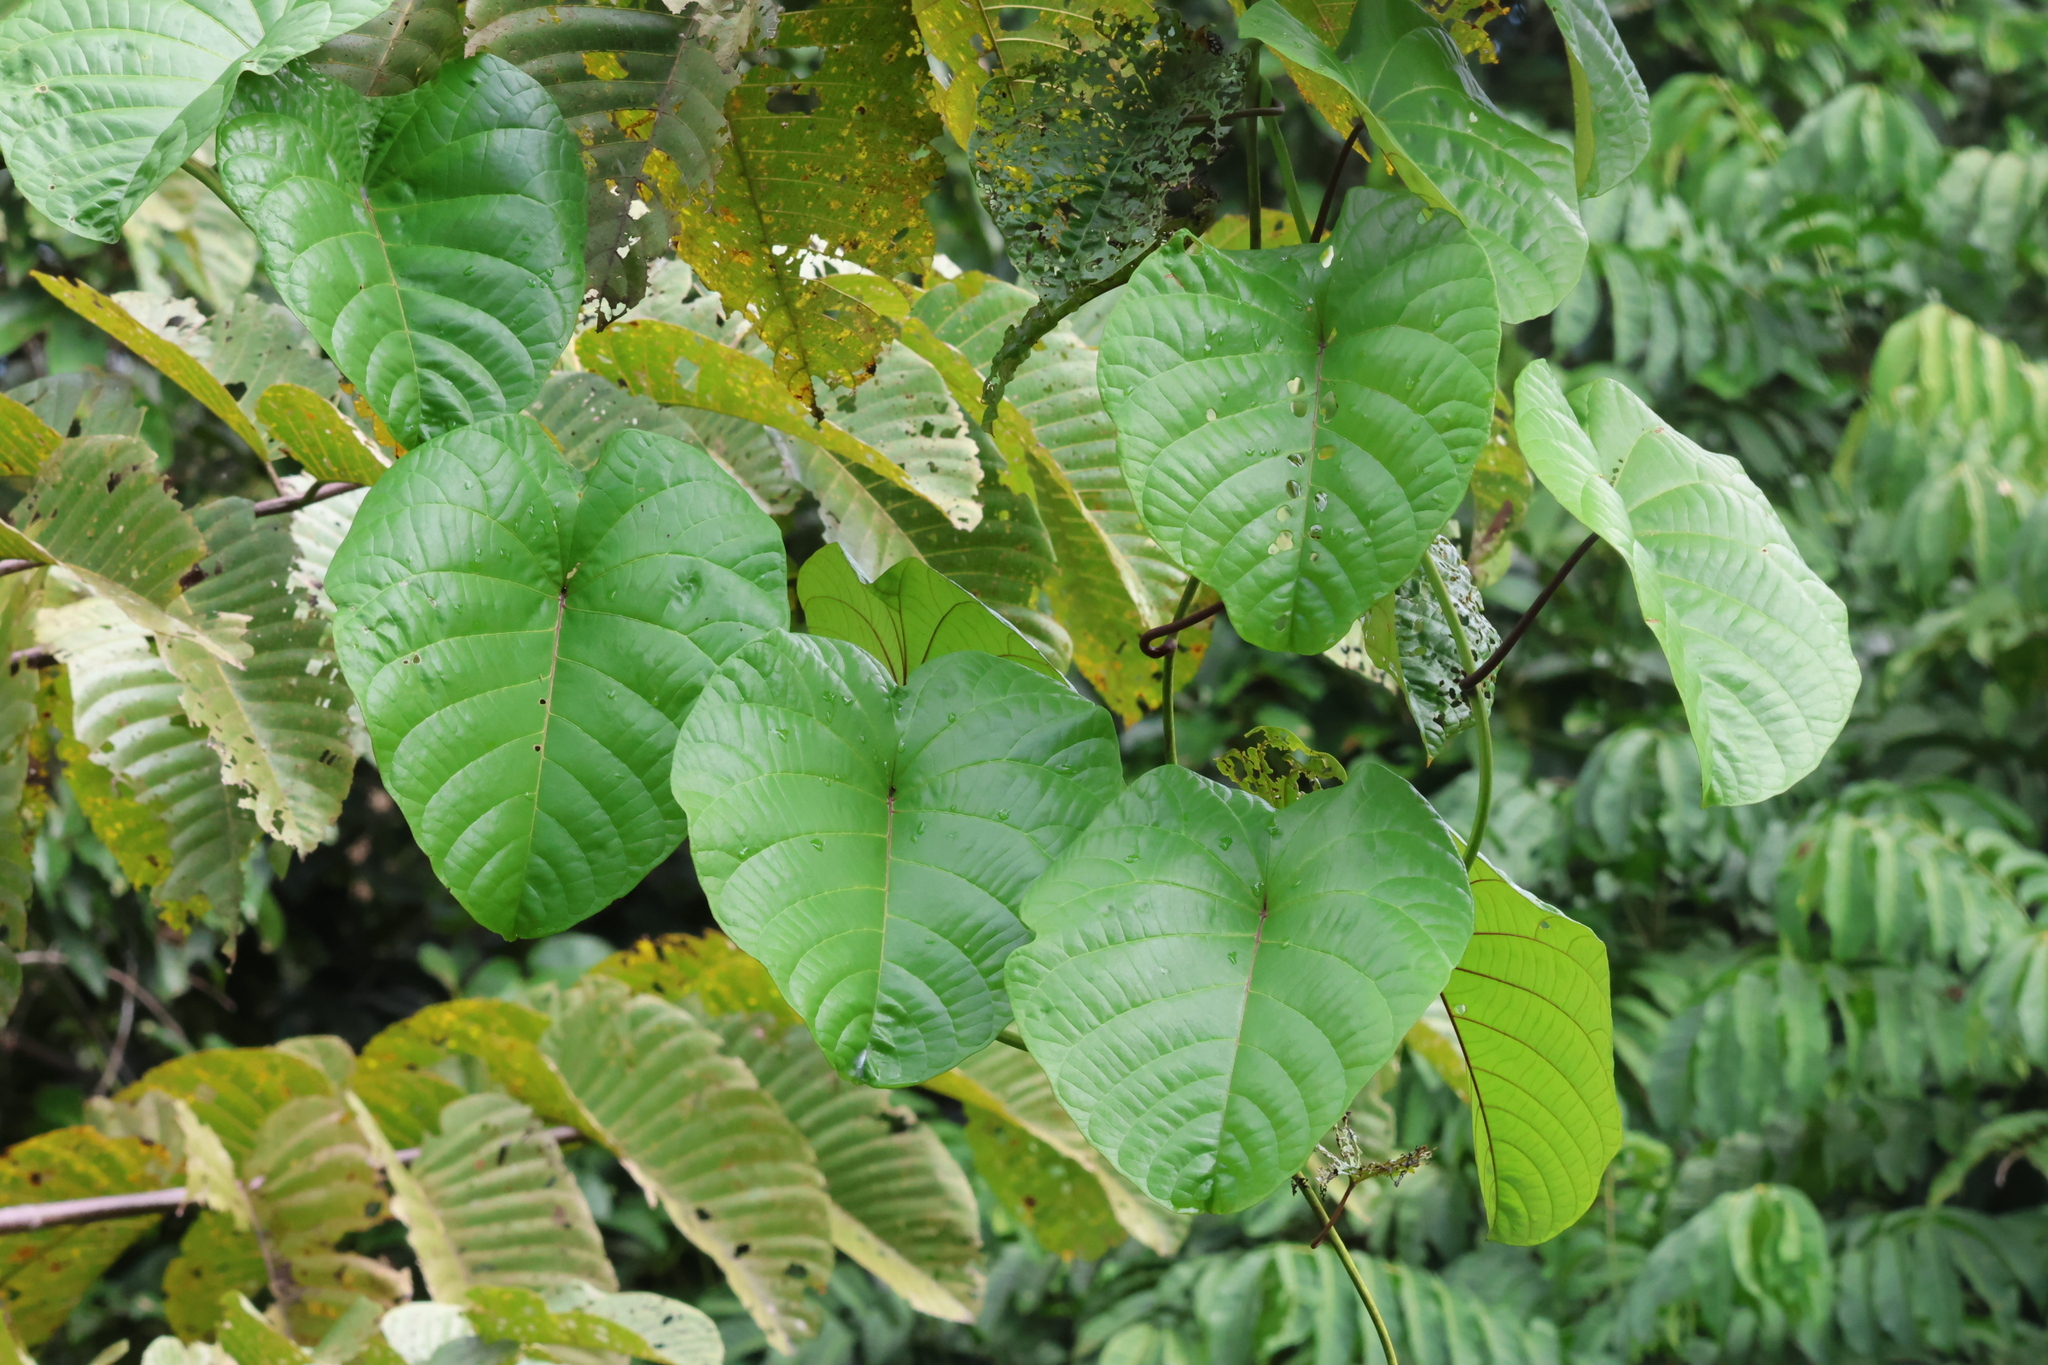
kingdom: Plantae
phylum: Tracheophyta
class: Magnoliopsida
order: Solanales
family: Convolvulaceae
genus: Decalobanthus
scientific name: Decalobanthus peltatus
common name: Merremia
